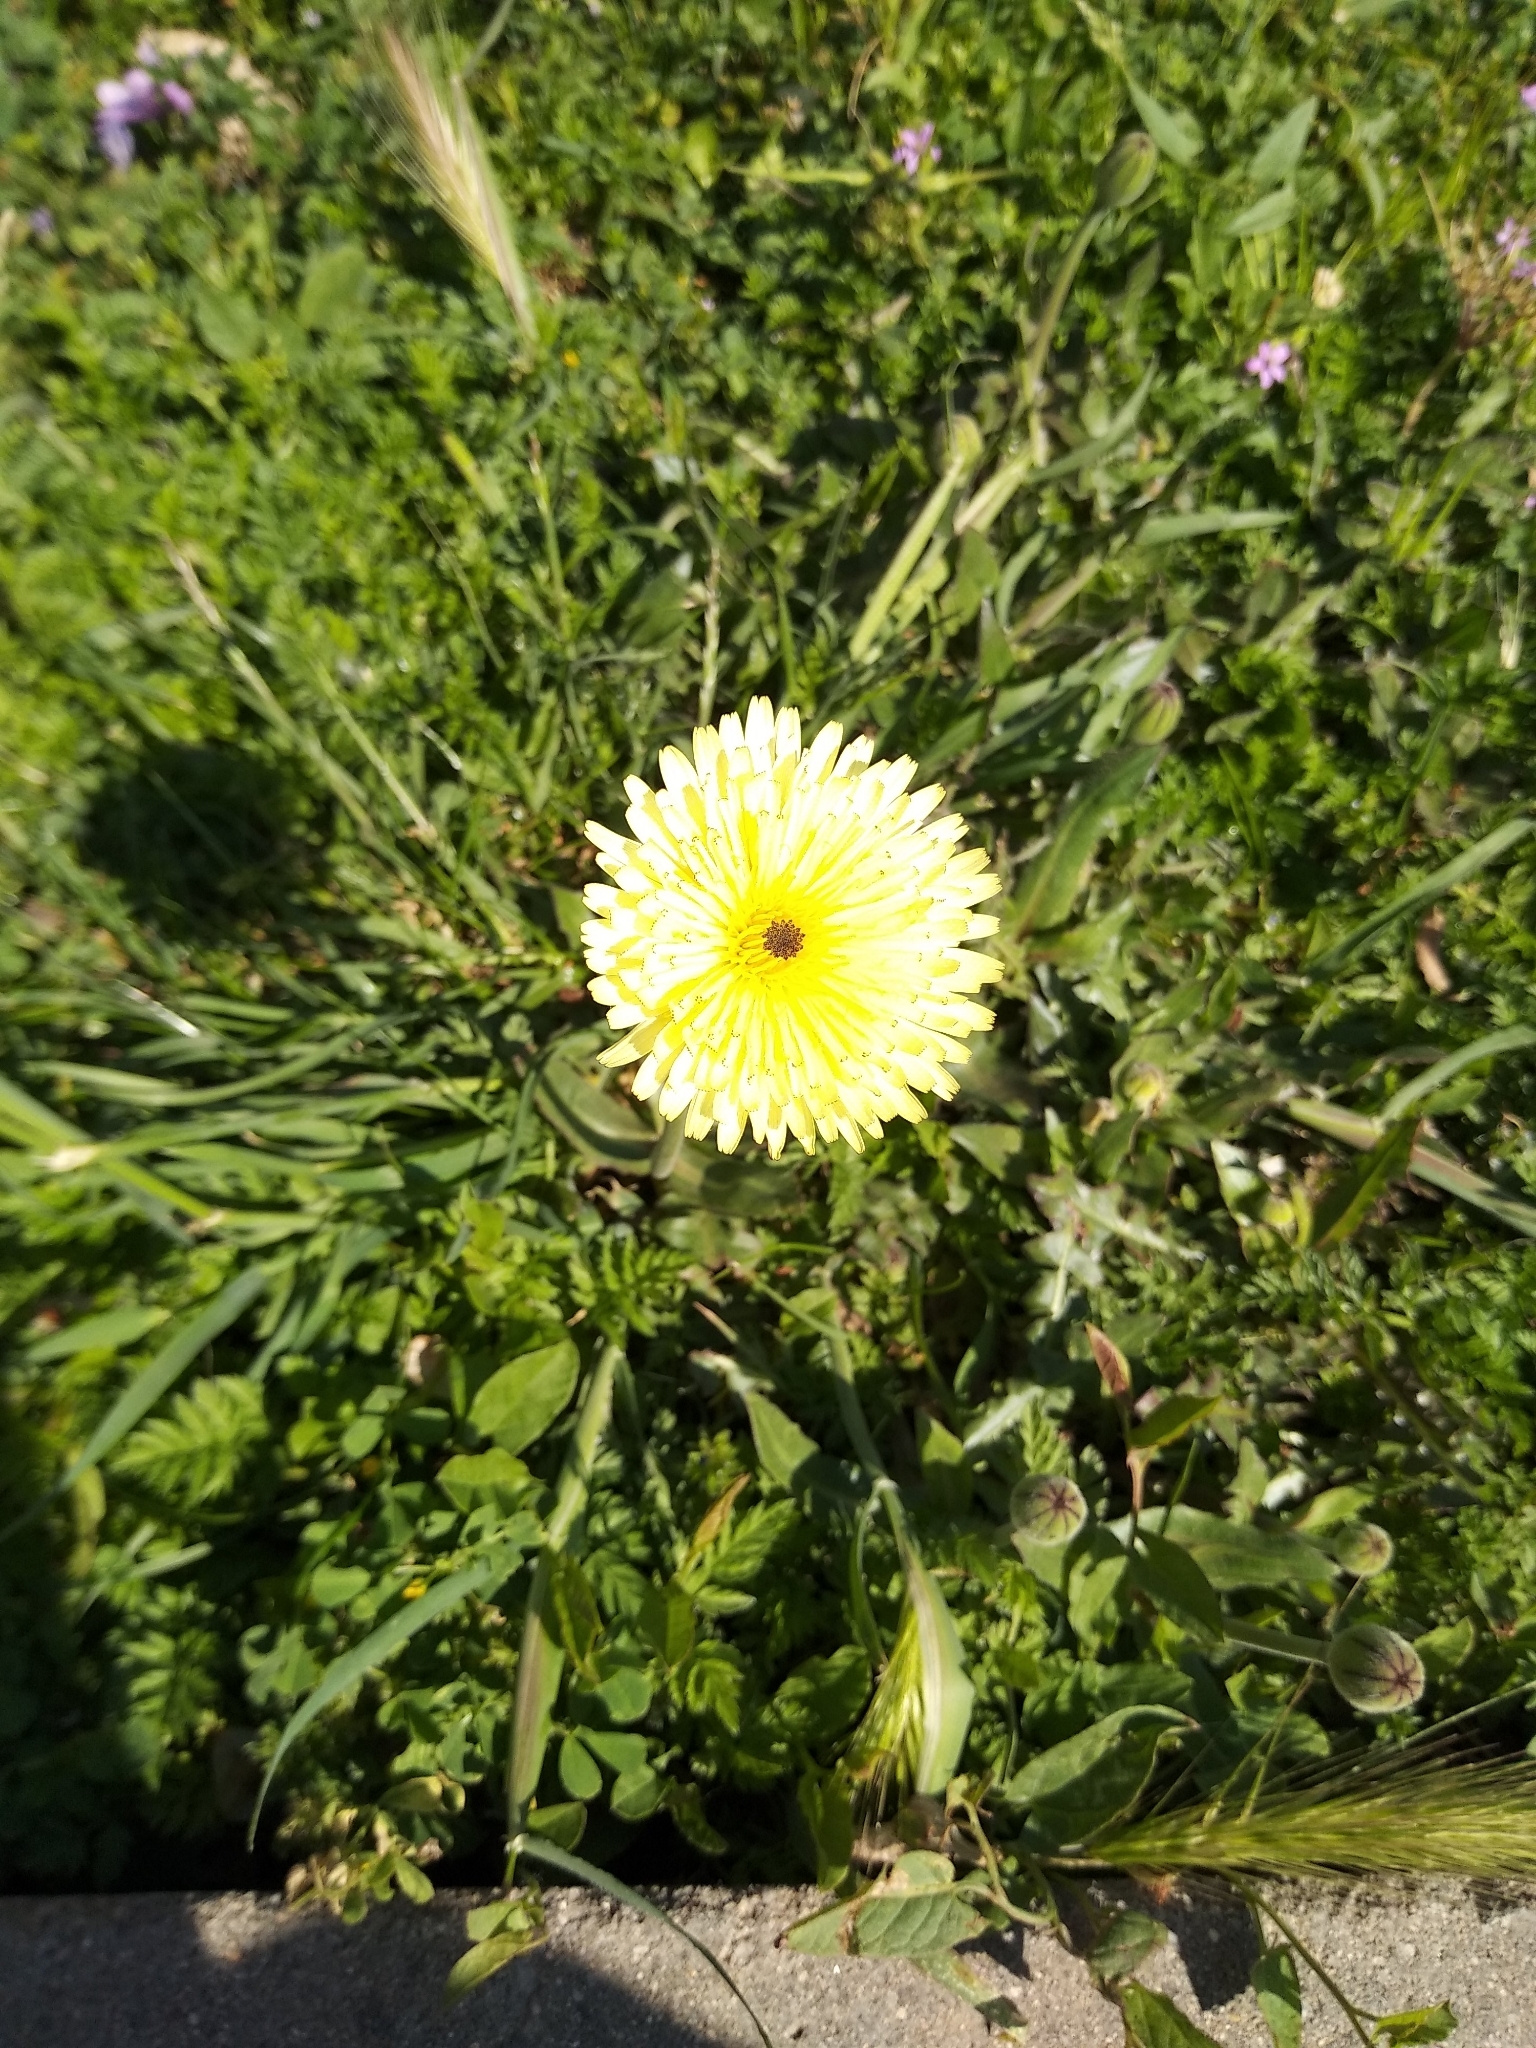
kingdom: Plantae
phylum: Tracheophyta
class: Magnoliopsida
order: Asterales
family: Asteraceae
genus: Urospermum
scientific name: Urospermum dalechampii
